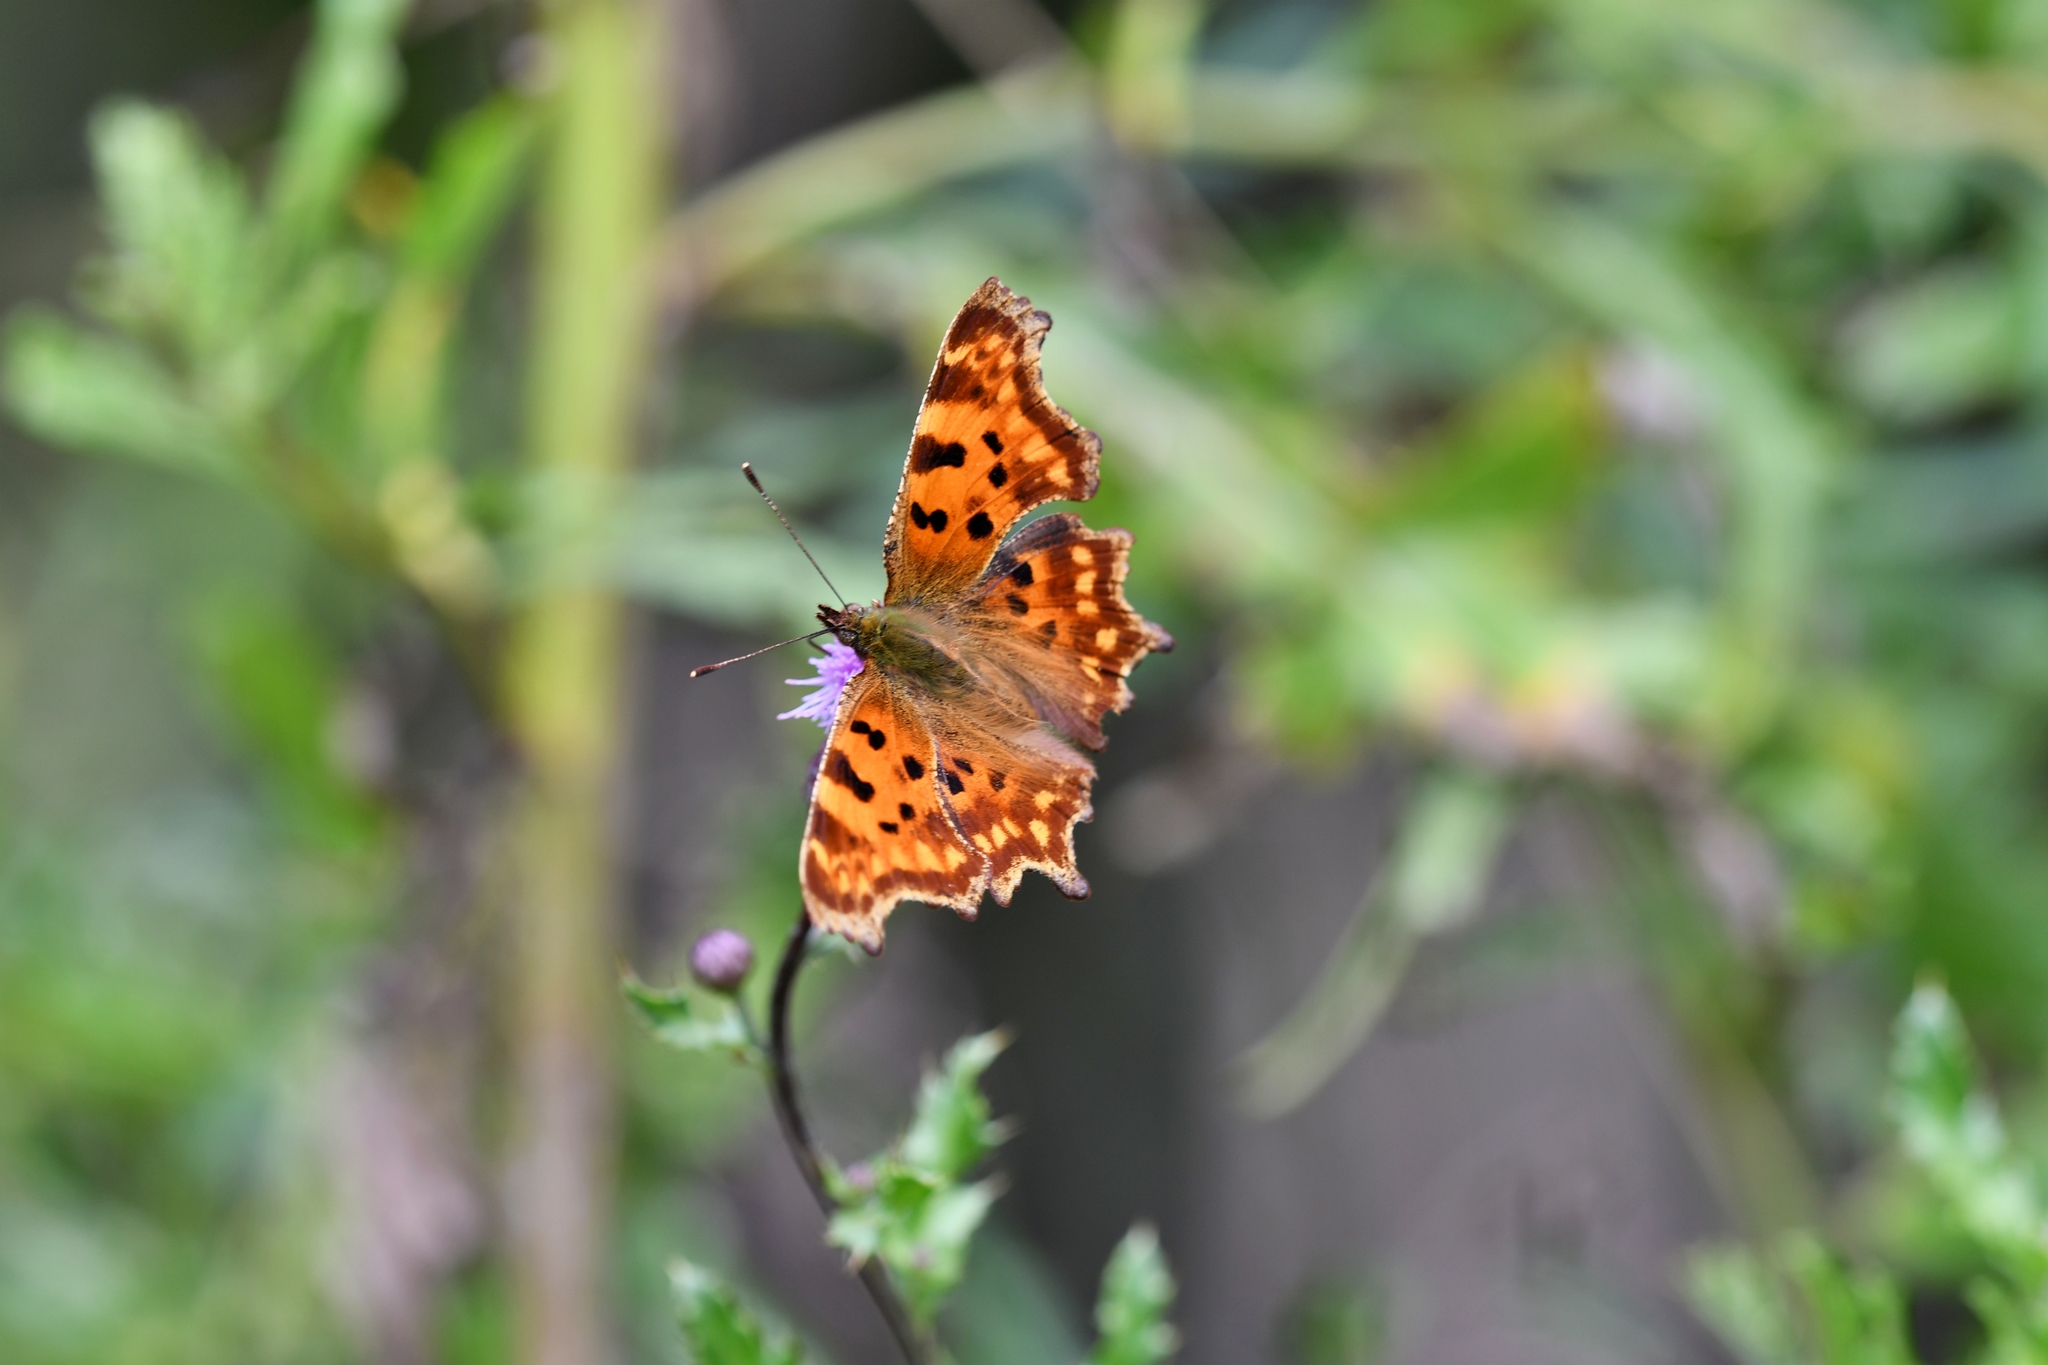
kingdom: Animalia
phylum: Arthropoda
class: Insecta
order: Lepidoptera
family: Nymphalidae
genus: Polygonia
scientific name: Polygonia c-album
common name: Comma
